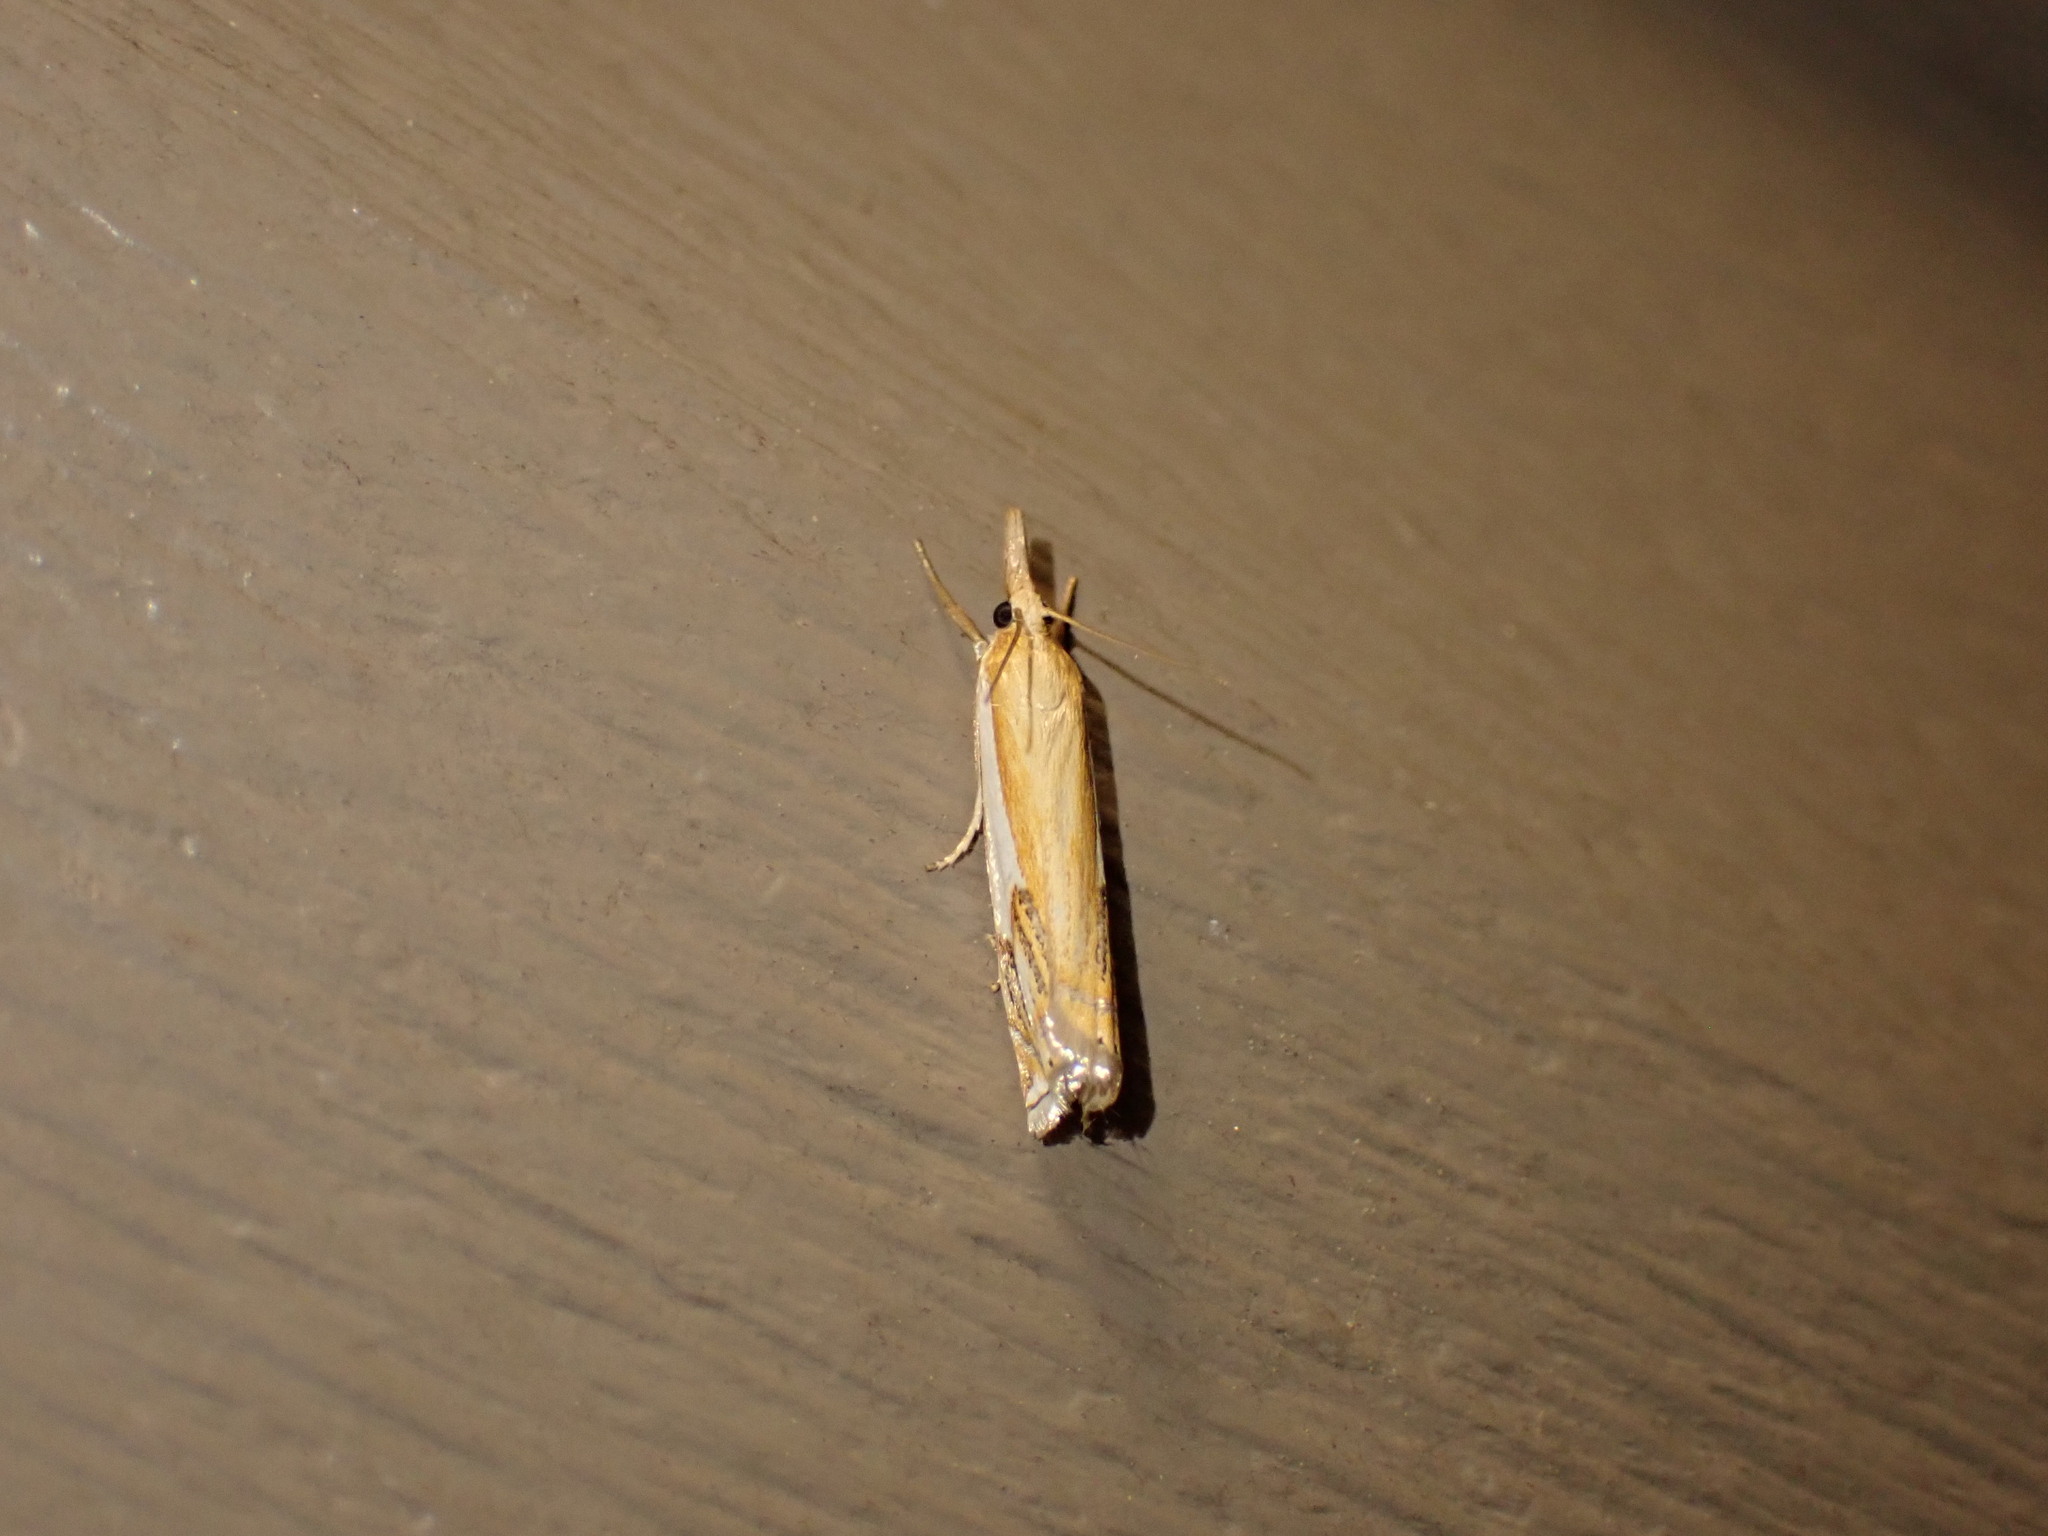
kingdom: Animalia
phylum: Arthropoda
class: Insecta
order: Lepidoptera
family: Crambidae
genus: Crambus
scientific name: Crambus agitatellus
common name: Double-banded grass-veneer
